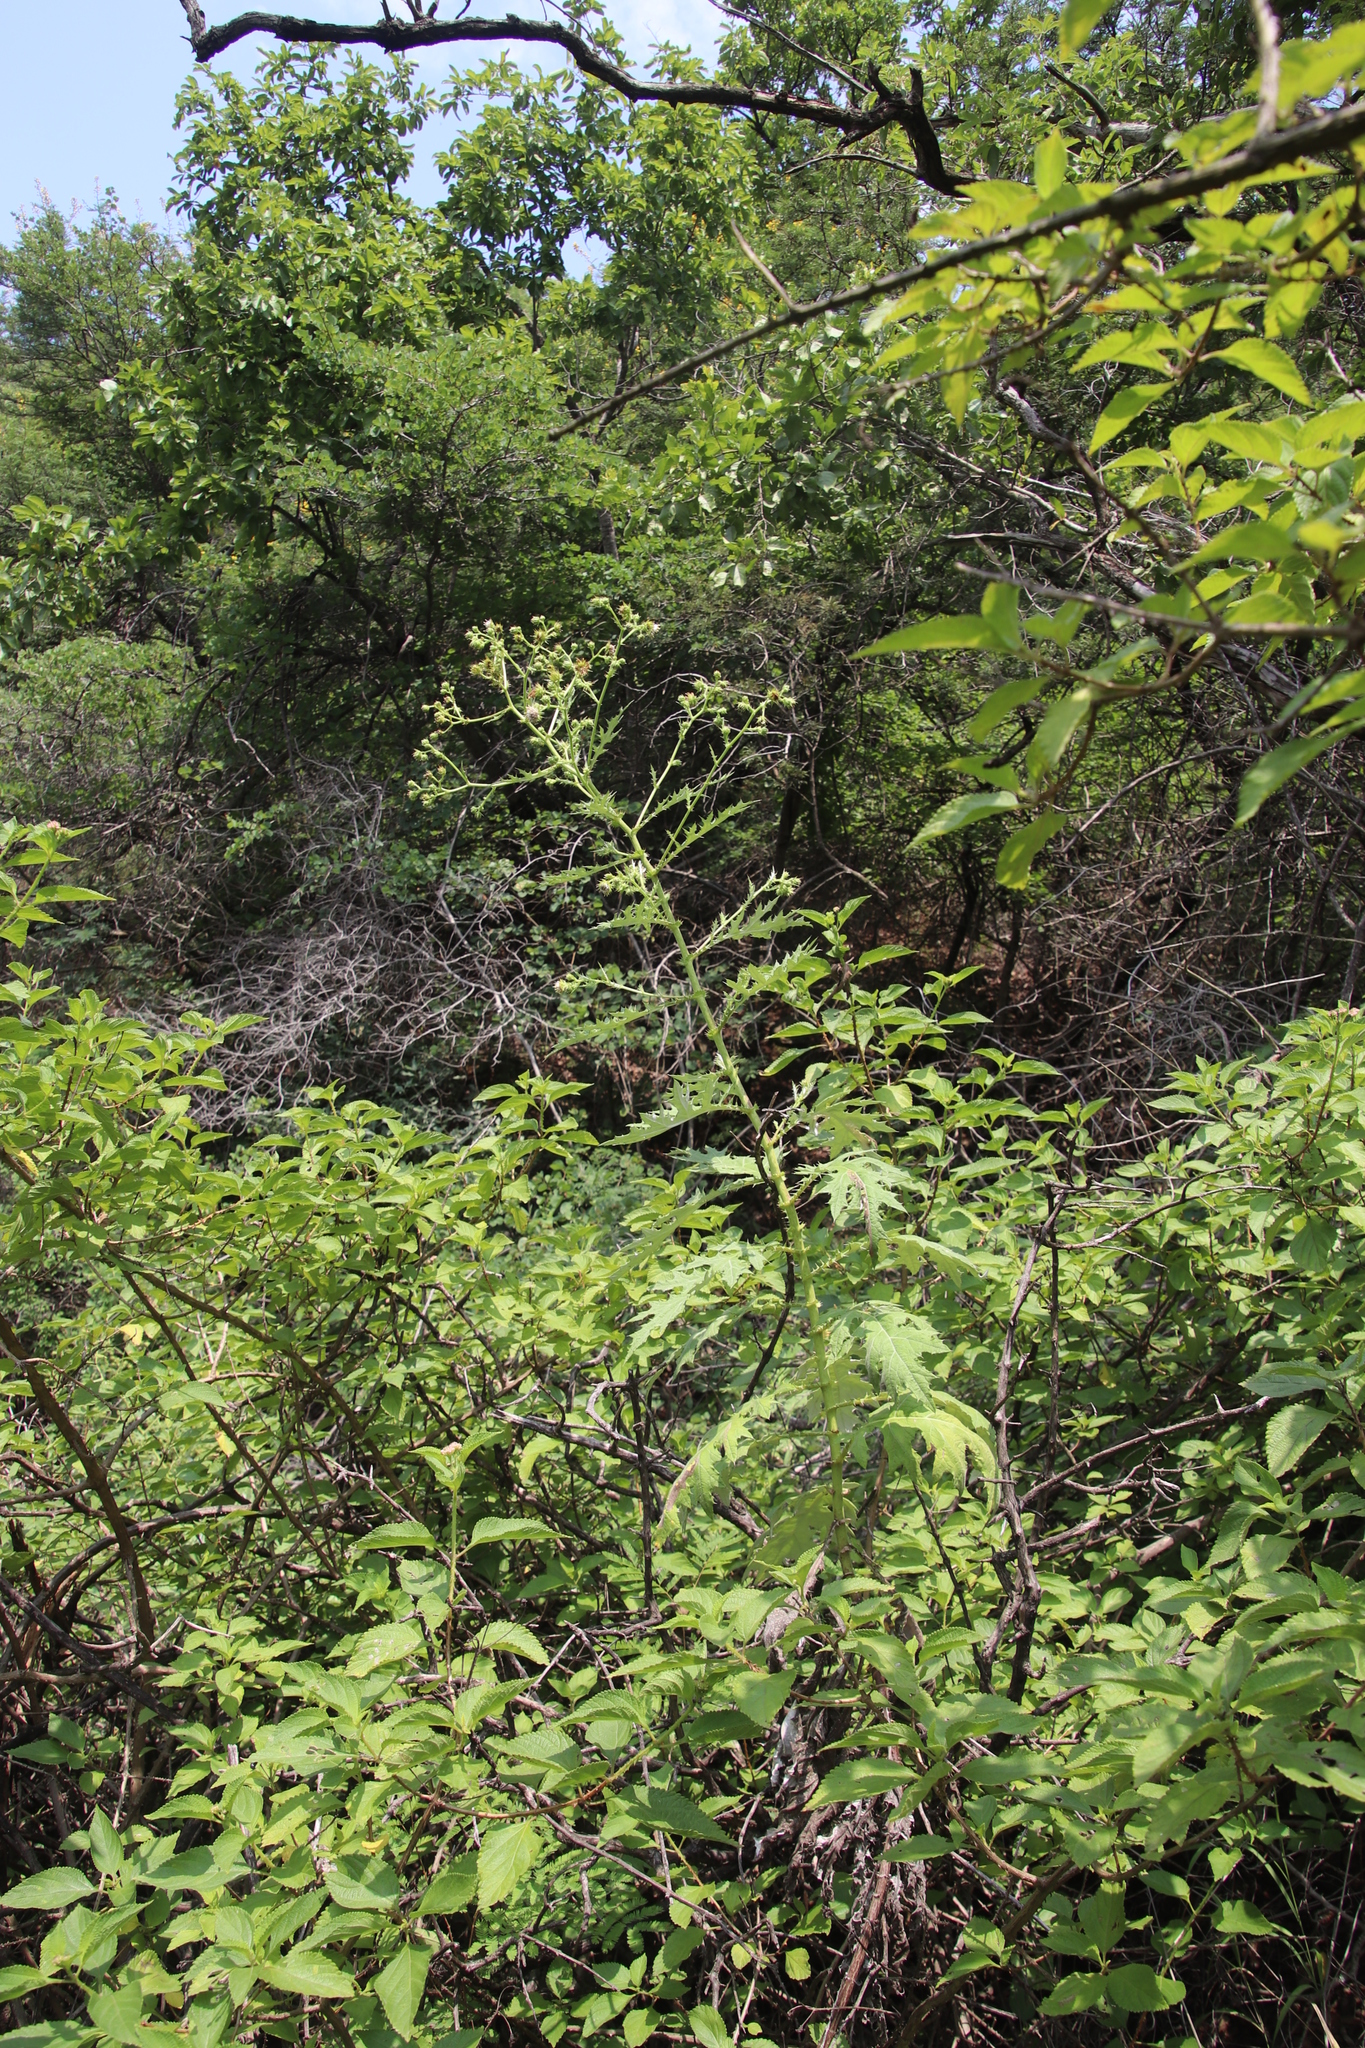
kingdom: Plantae
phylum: Tracheophyta
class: Magnoliopsida
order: Asterales
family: Asteraceae
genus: Berkheya
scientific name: Berkheya bipinnatifida
